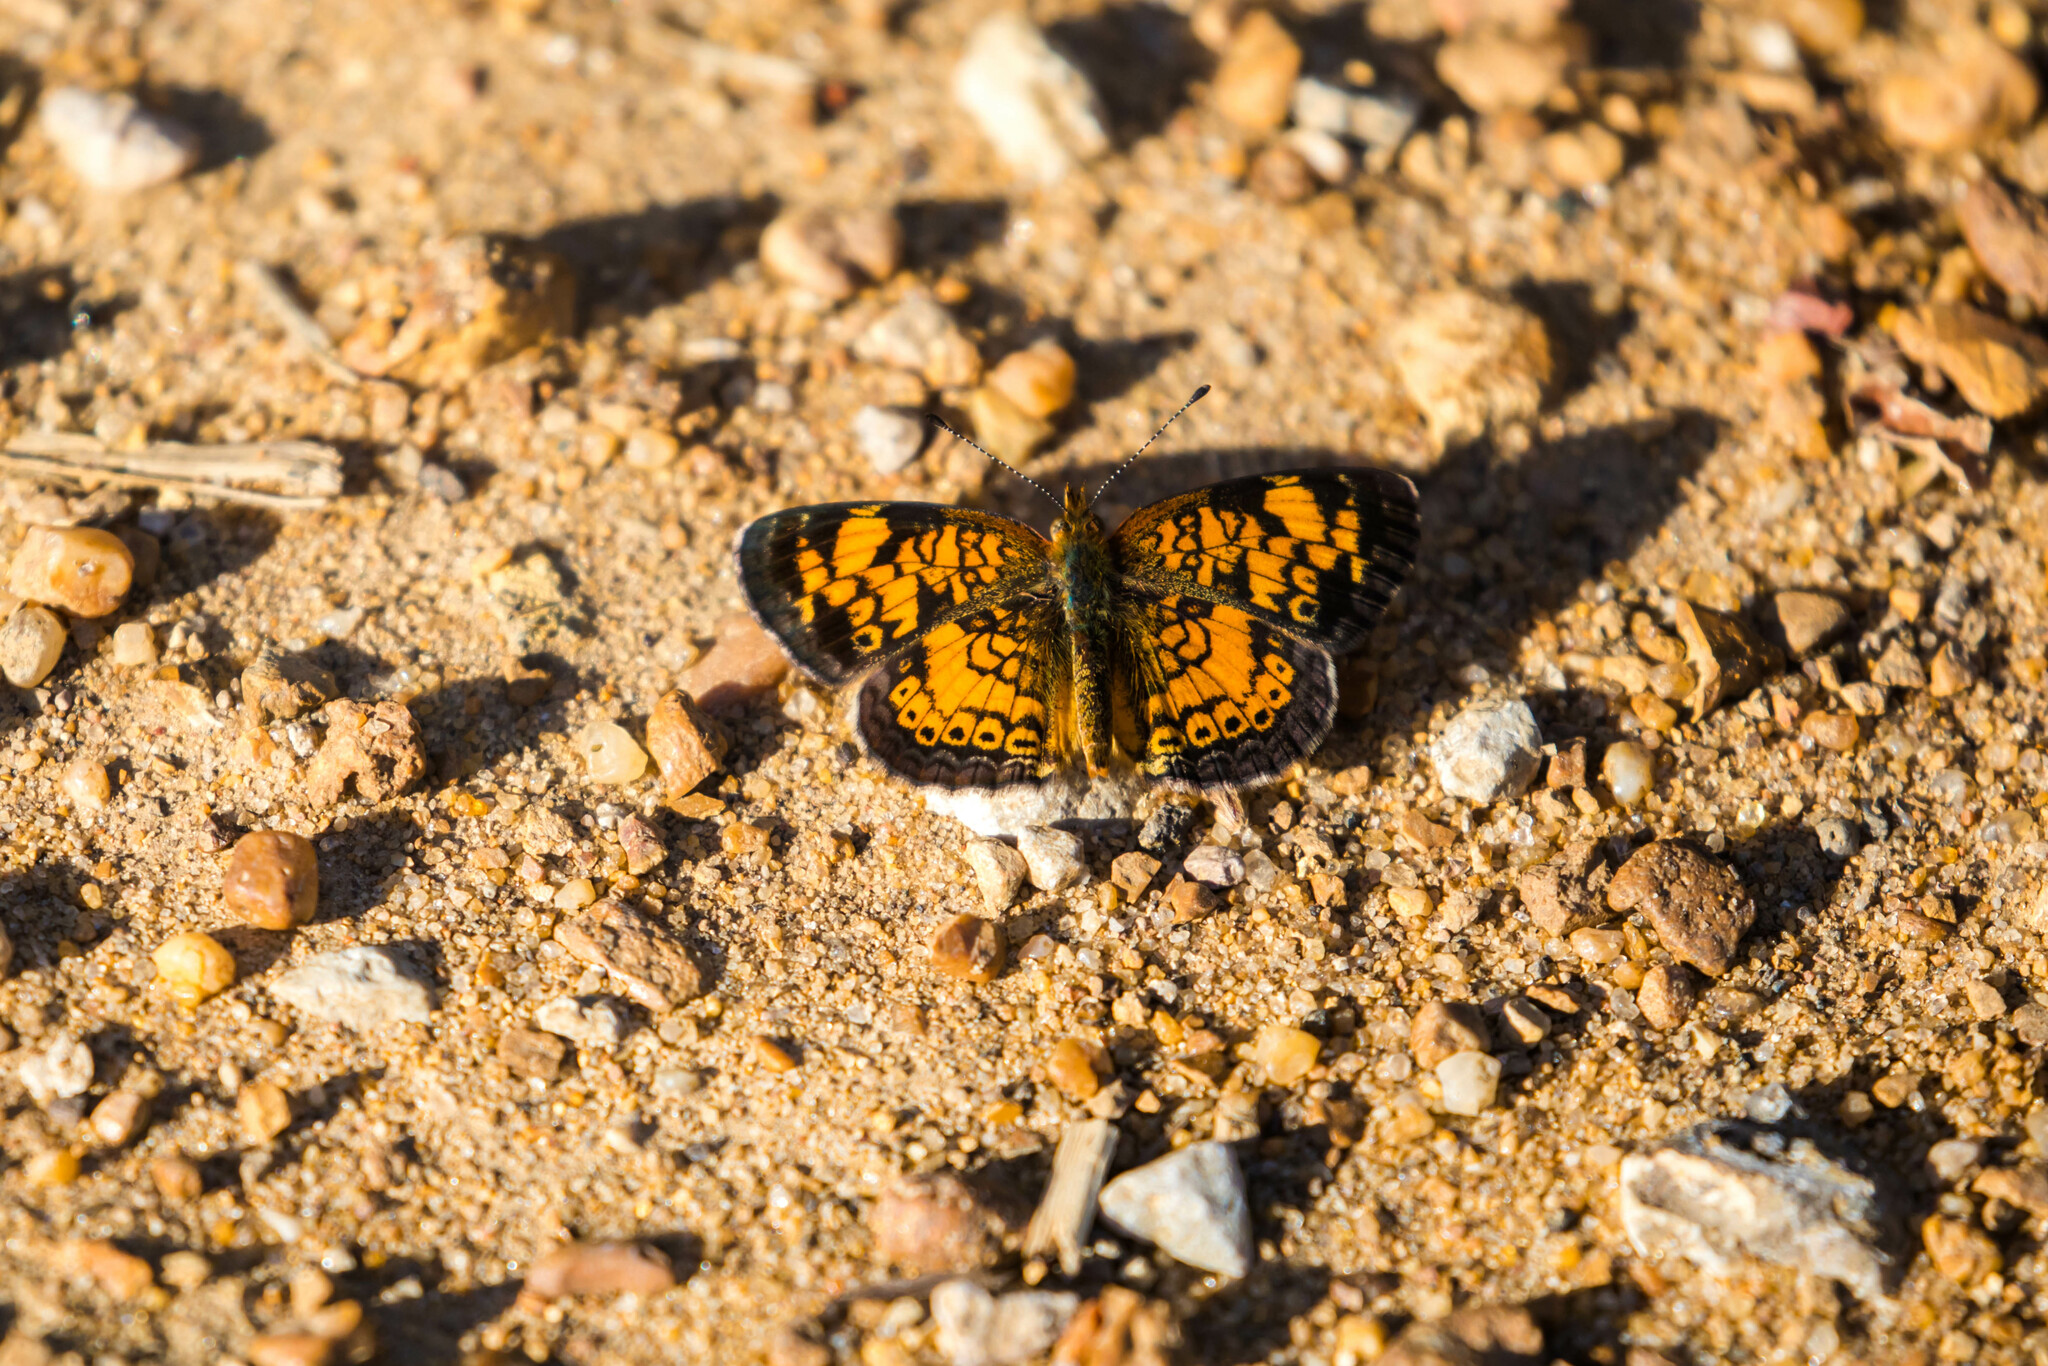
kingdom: Animalia
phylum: Arthropoda
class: Insecta
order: Lepidoptera
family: Nymphalidae
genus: Phyciodes
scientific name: Phyciodes tharos
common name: Pearl crescent
